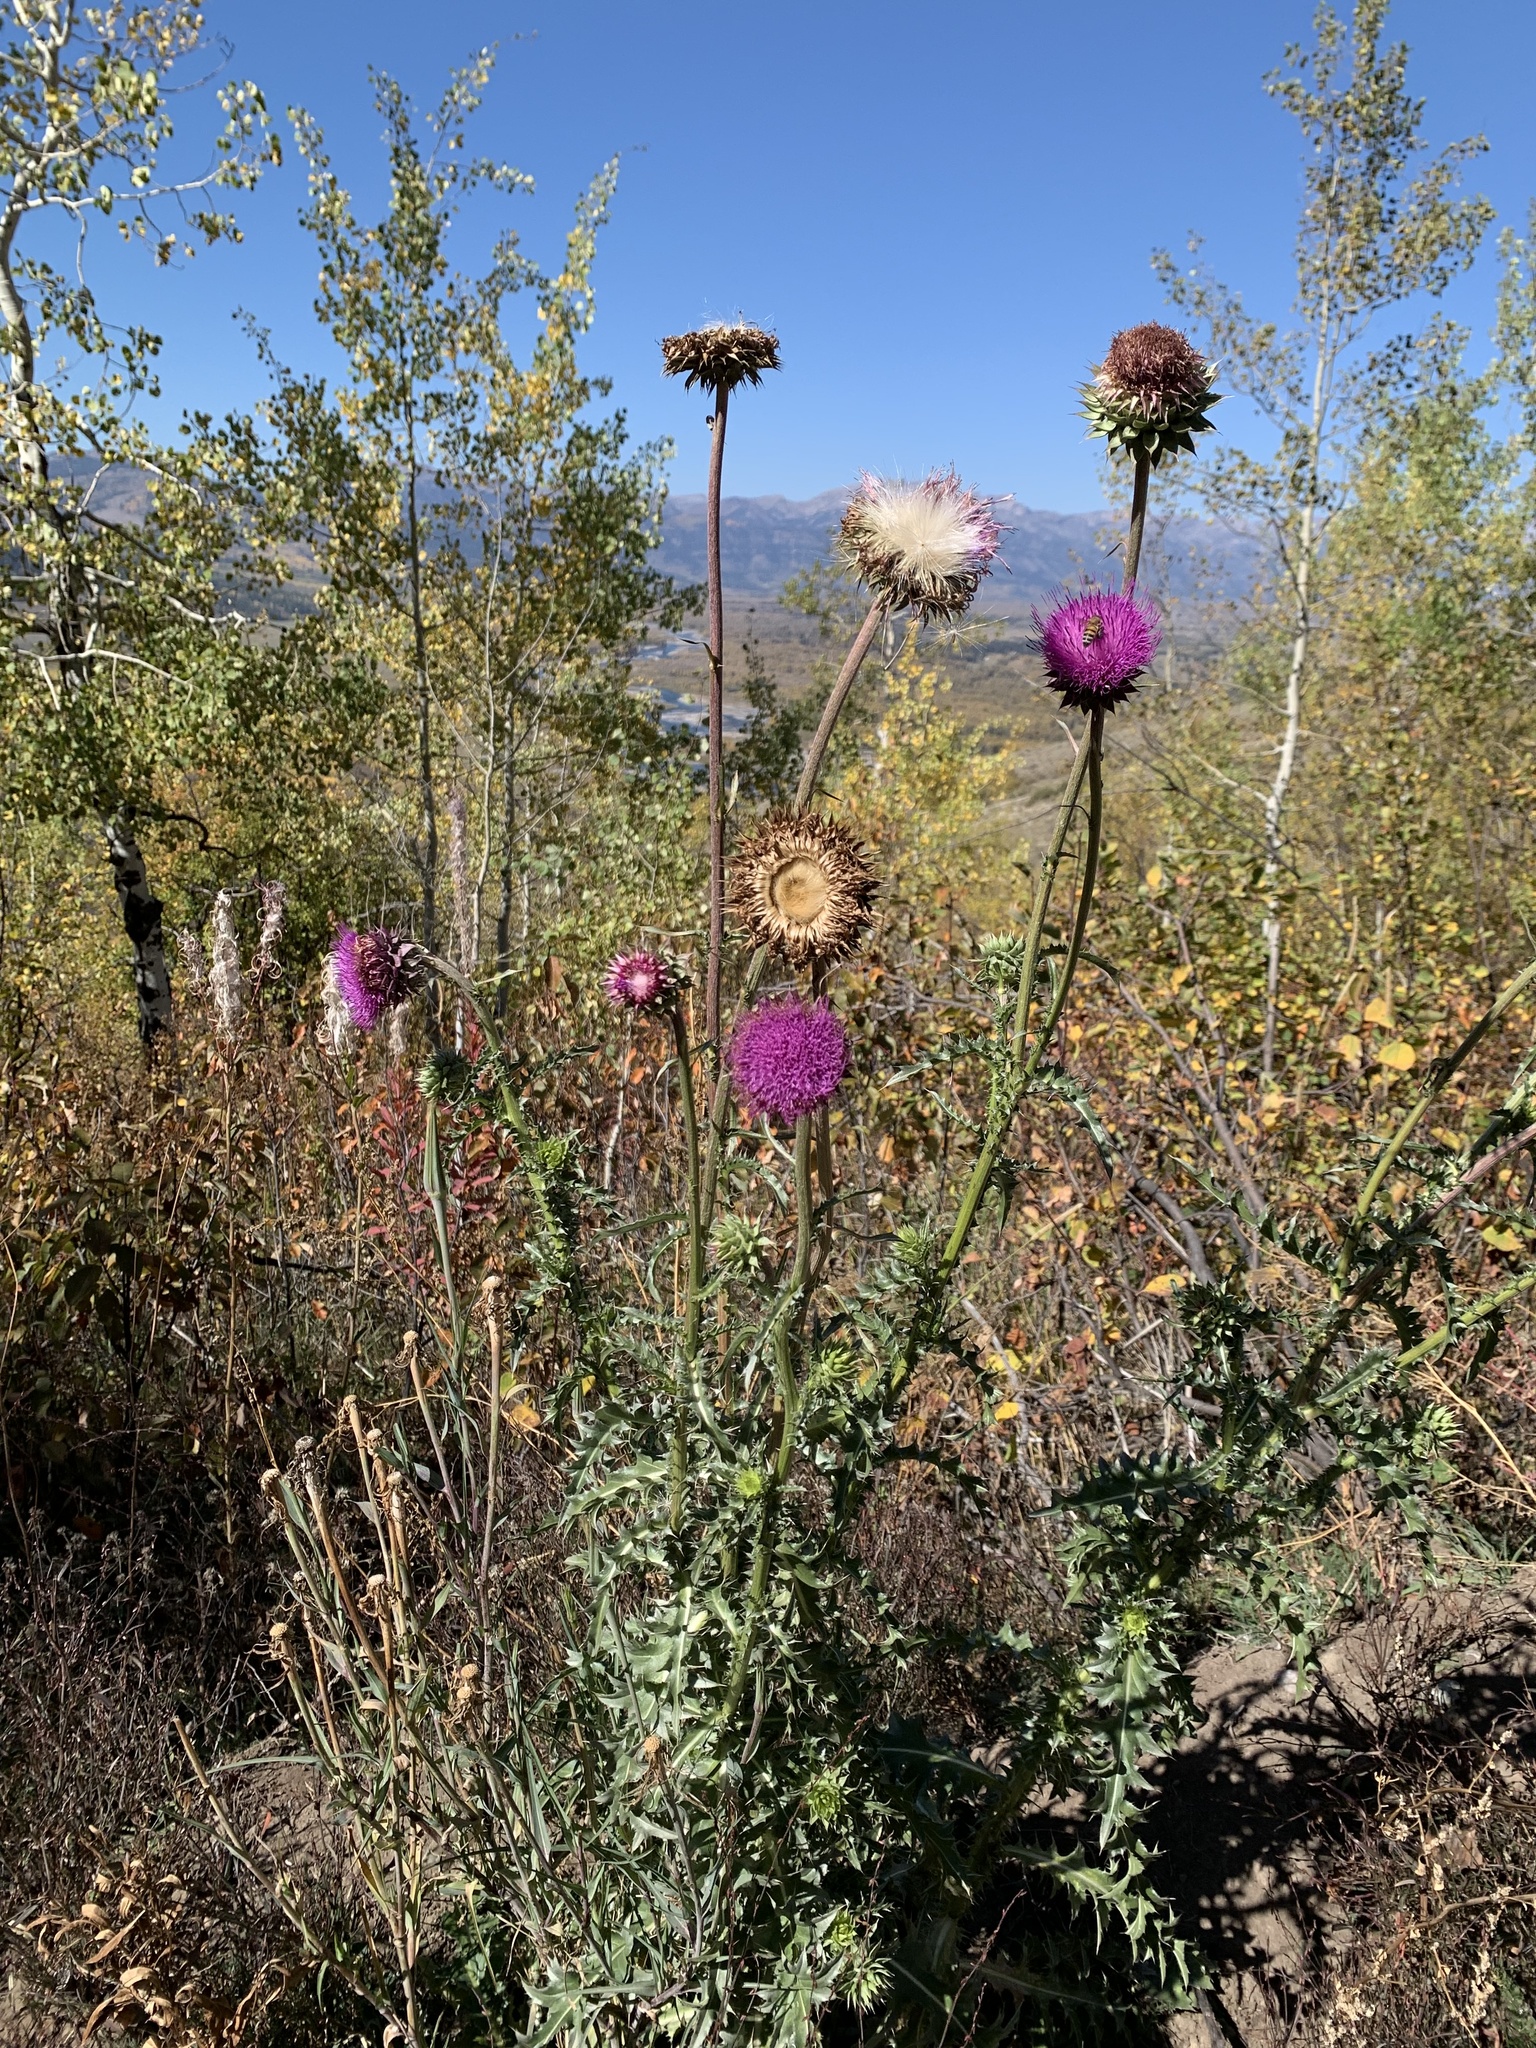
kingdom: Plantae
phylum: Tracheophyta
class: Magnoliopsida
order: Asterales
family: Asteraceae
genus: Carduus
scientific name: Carduus nutans
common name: Musk thistle
